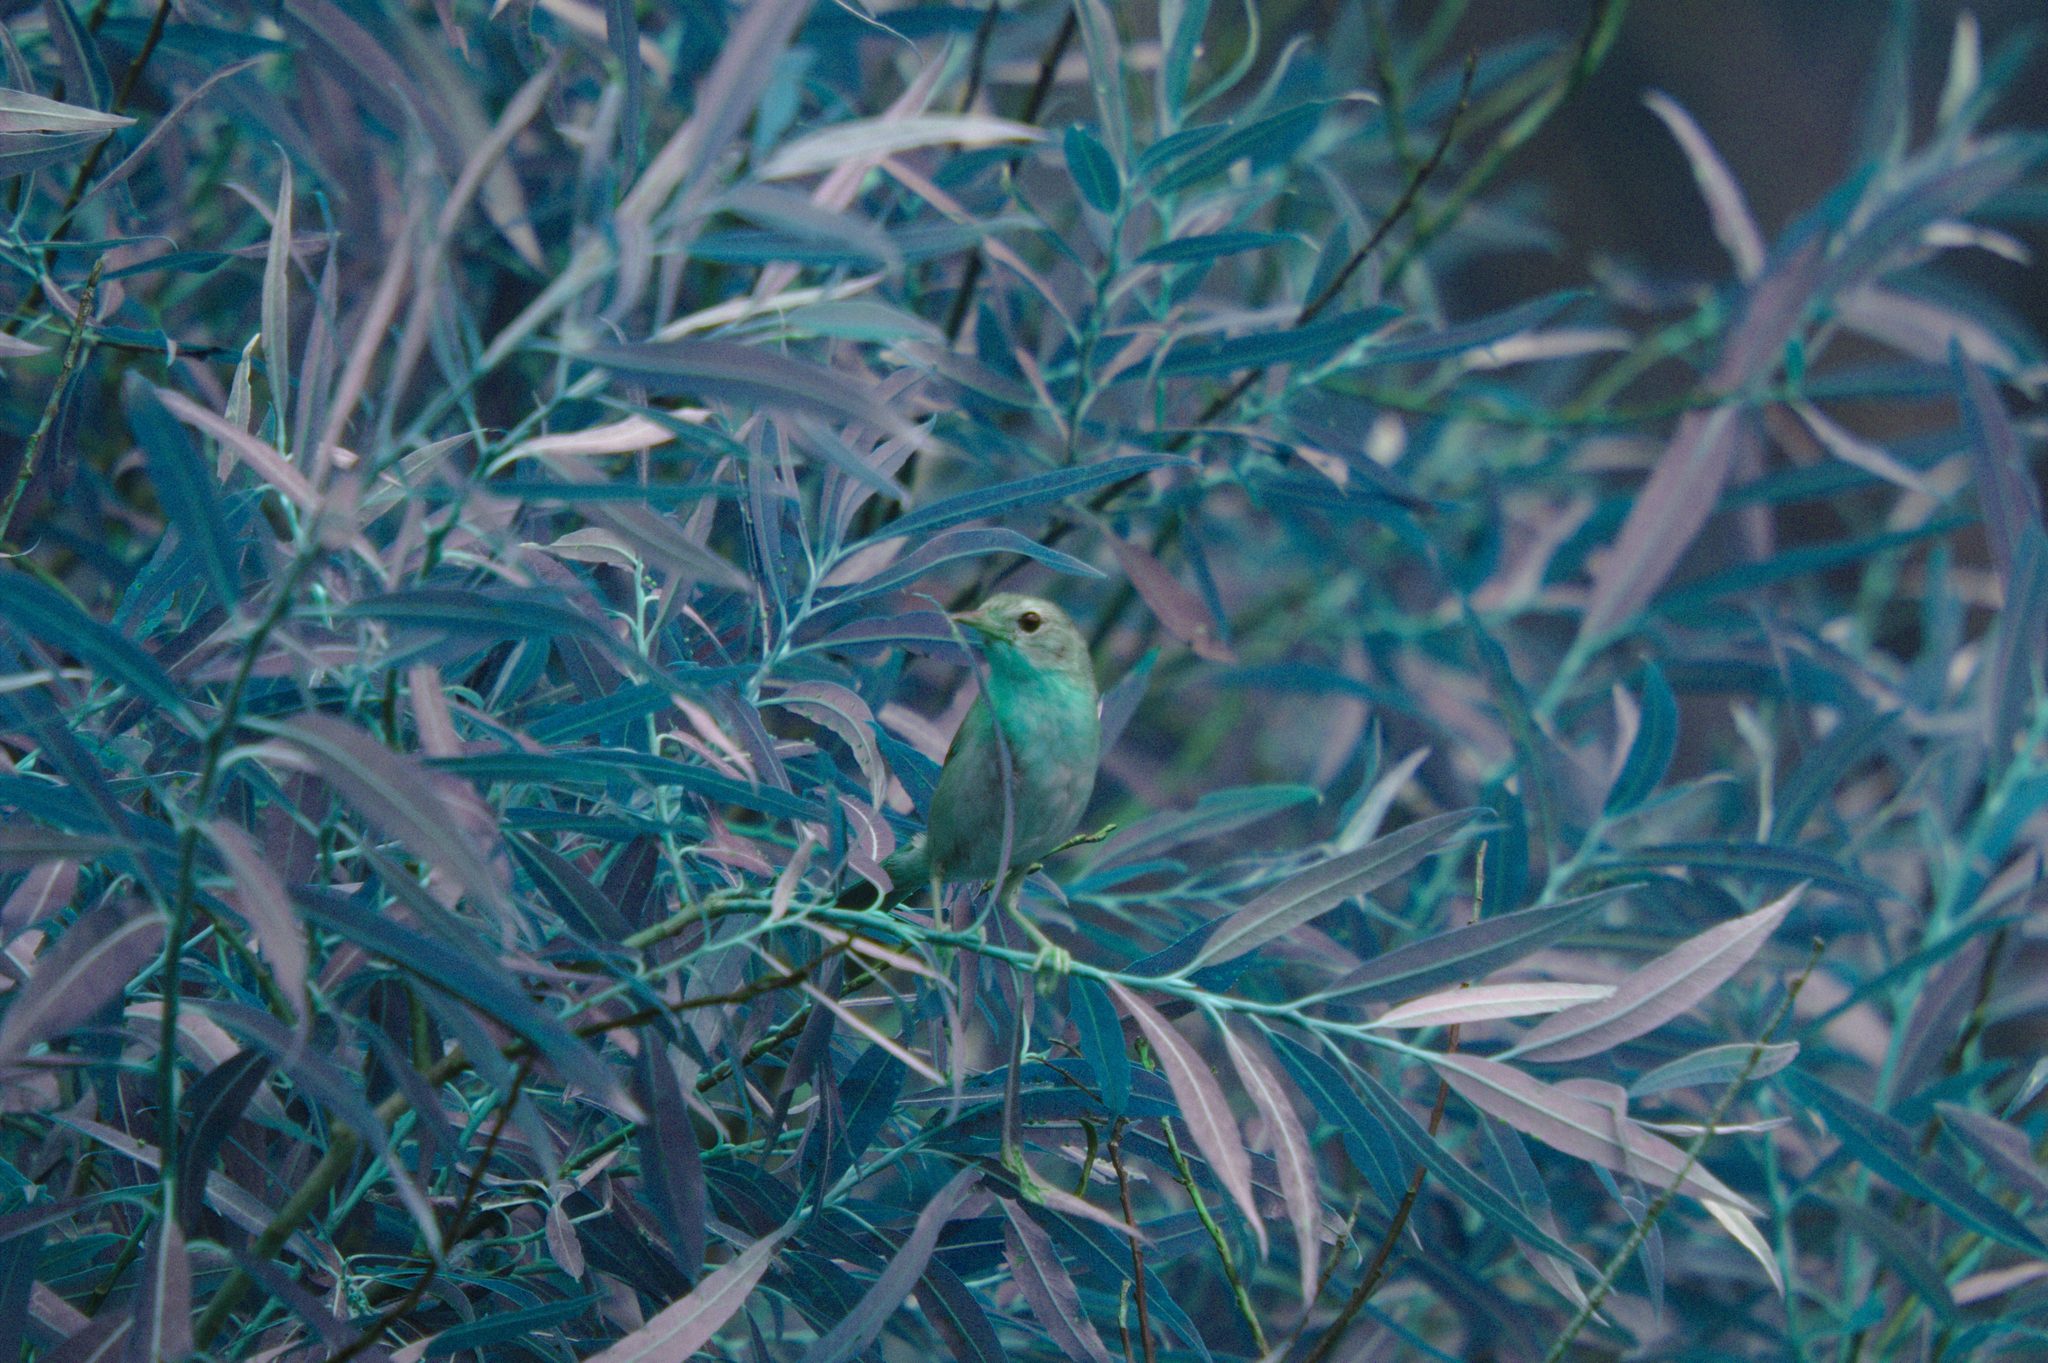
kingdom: Animalia
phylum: Chordata
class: Aves
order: Passeriformes
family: Parulidae
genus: Geothlypis
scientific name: Geothlypis trichas
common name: Common yellowthroat
